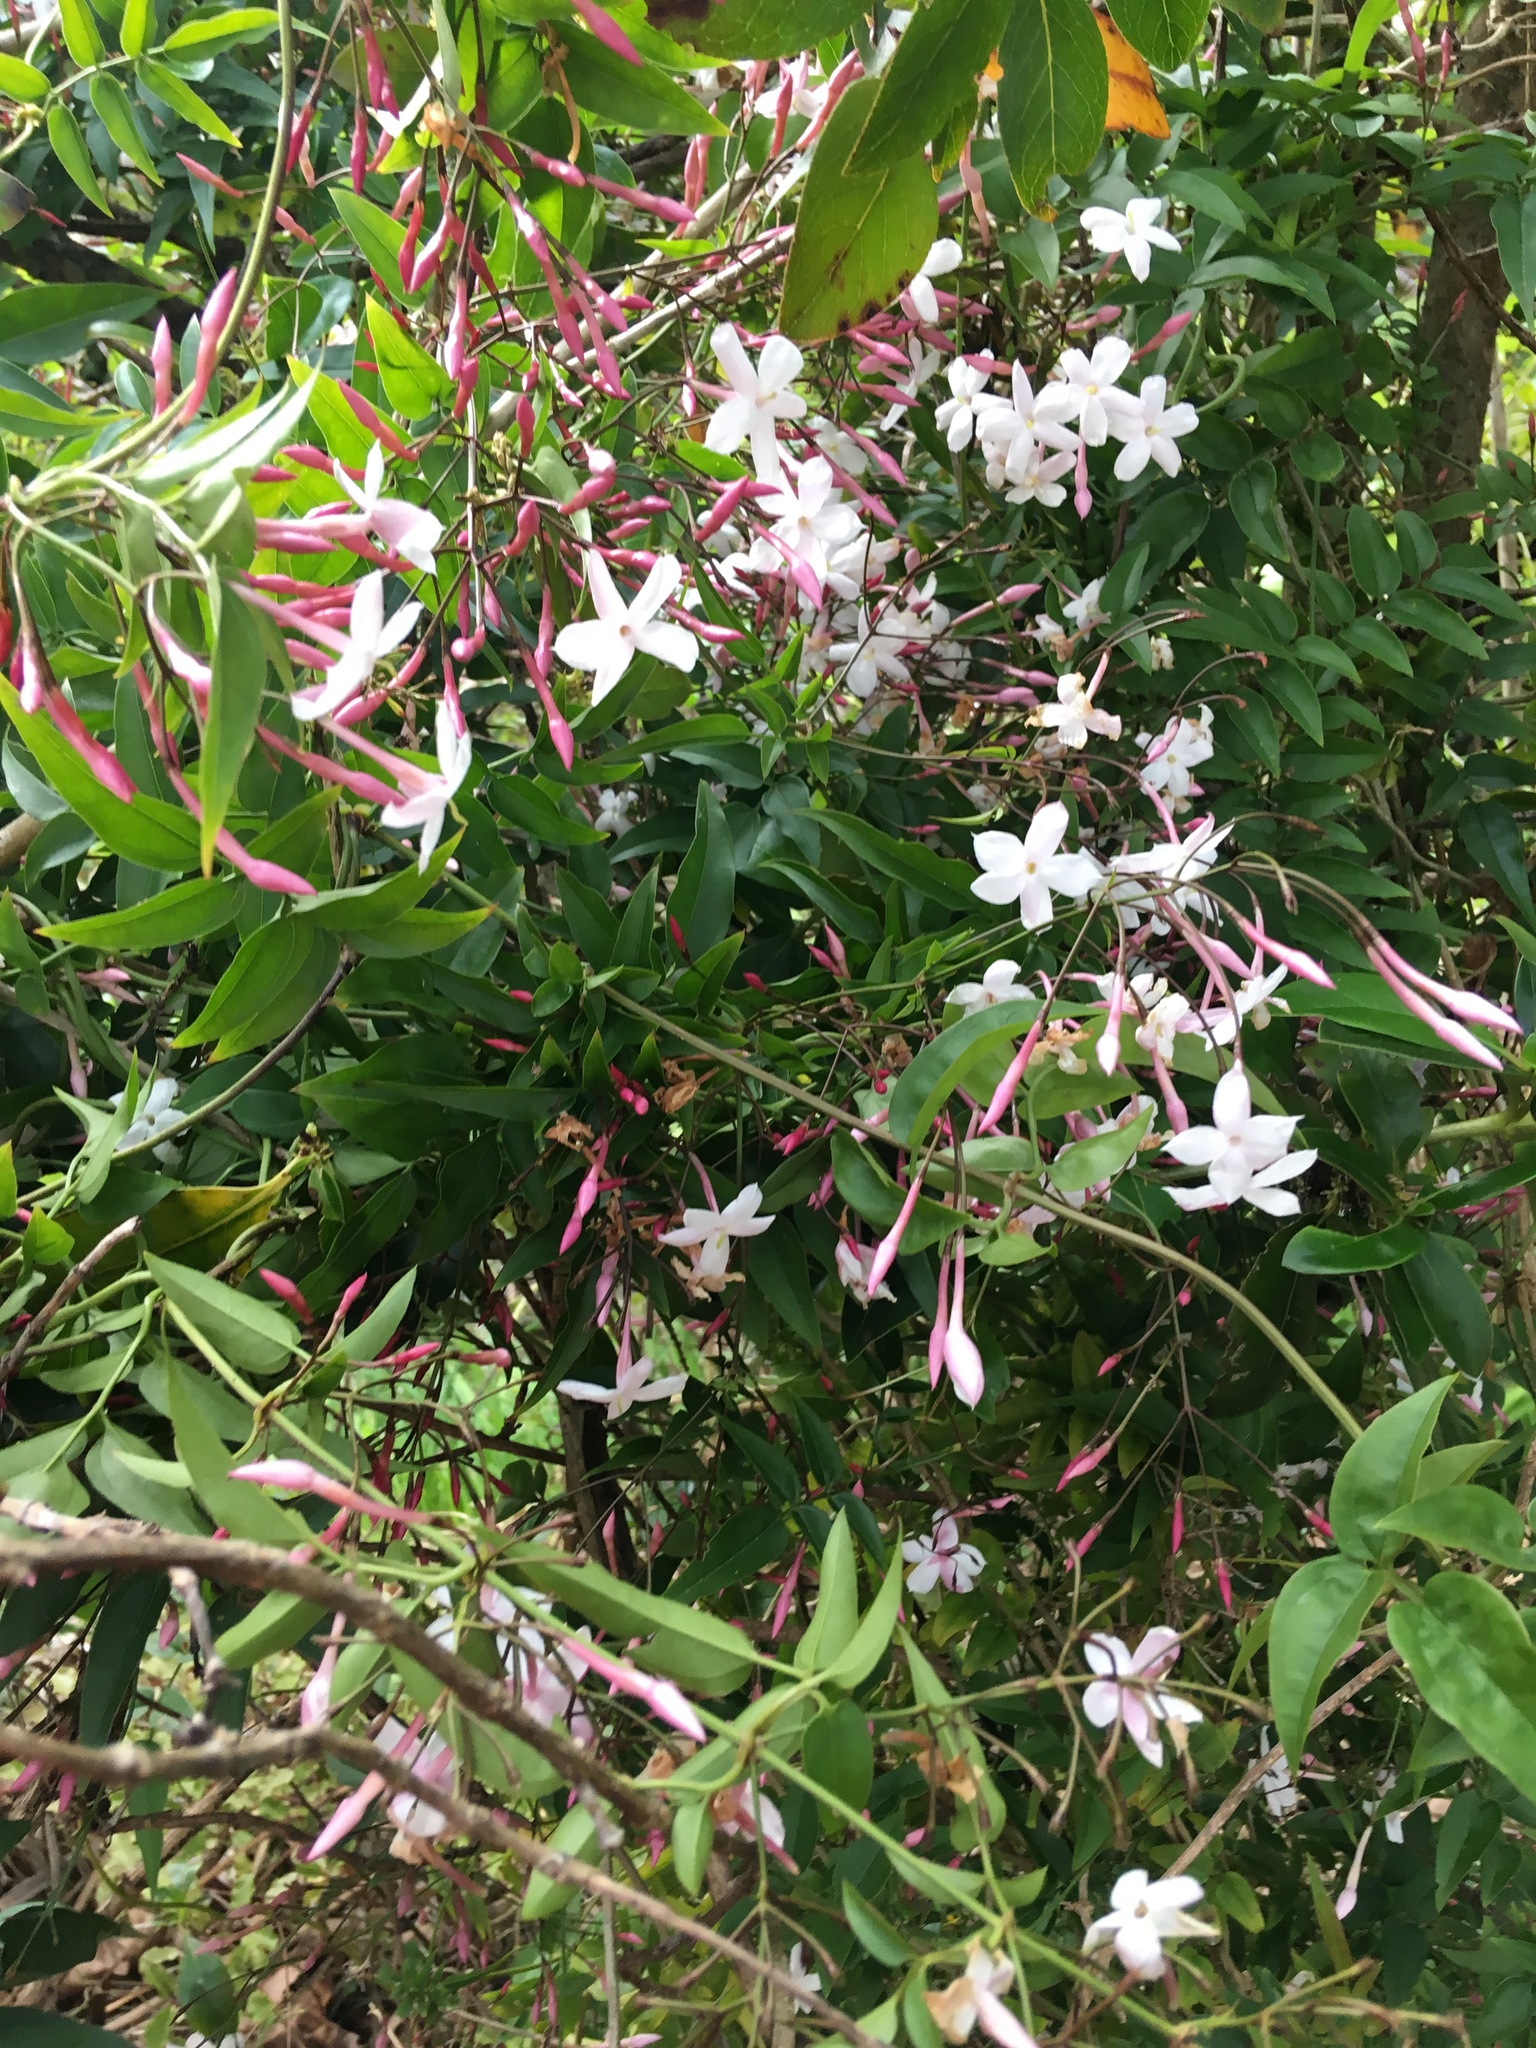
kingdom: Plantae
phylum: Tracheophyta
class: Magnoliopsida
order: Lamiales
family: Oleaceae
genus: Jasminum
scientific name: Jasminum polyanthum
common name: Pink jasmine
